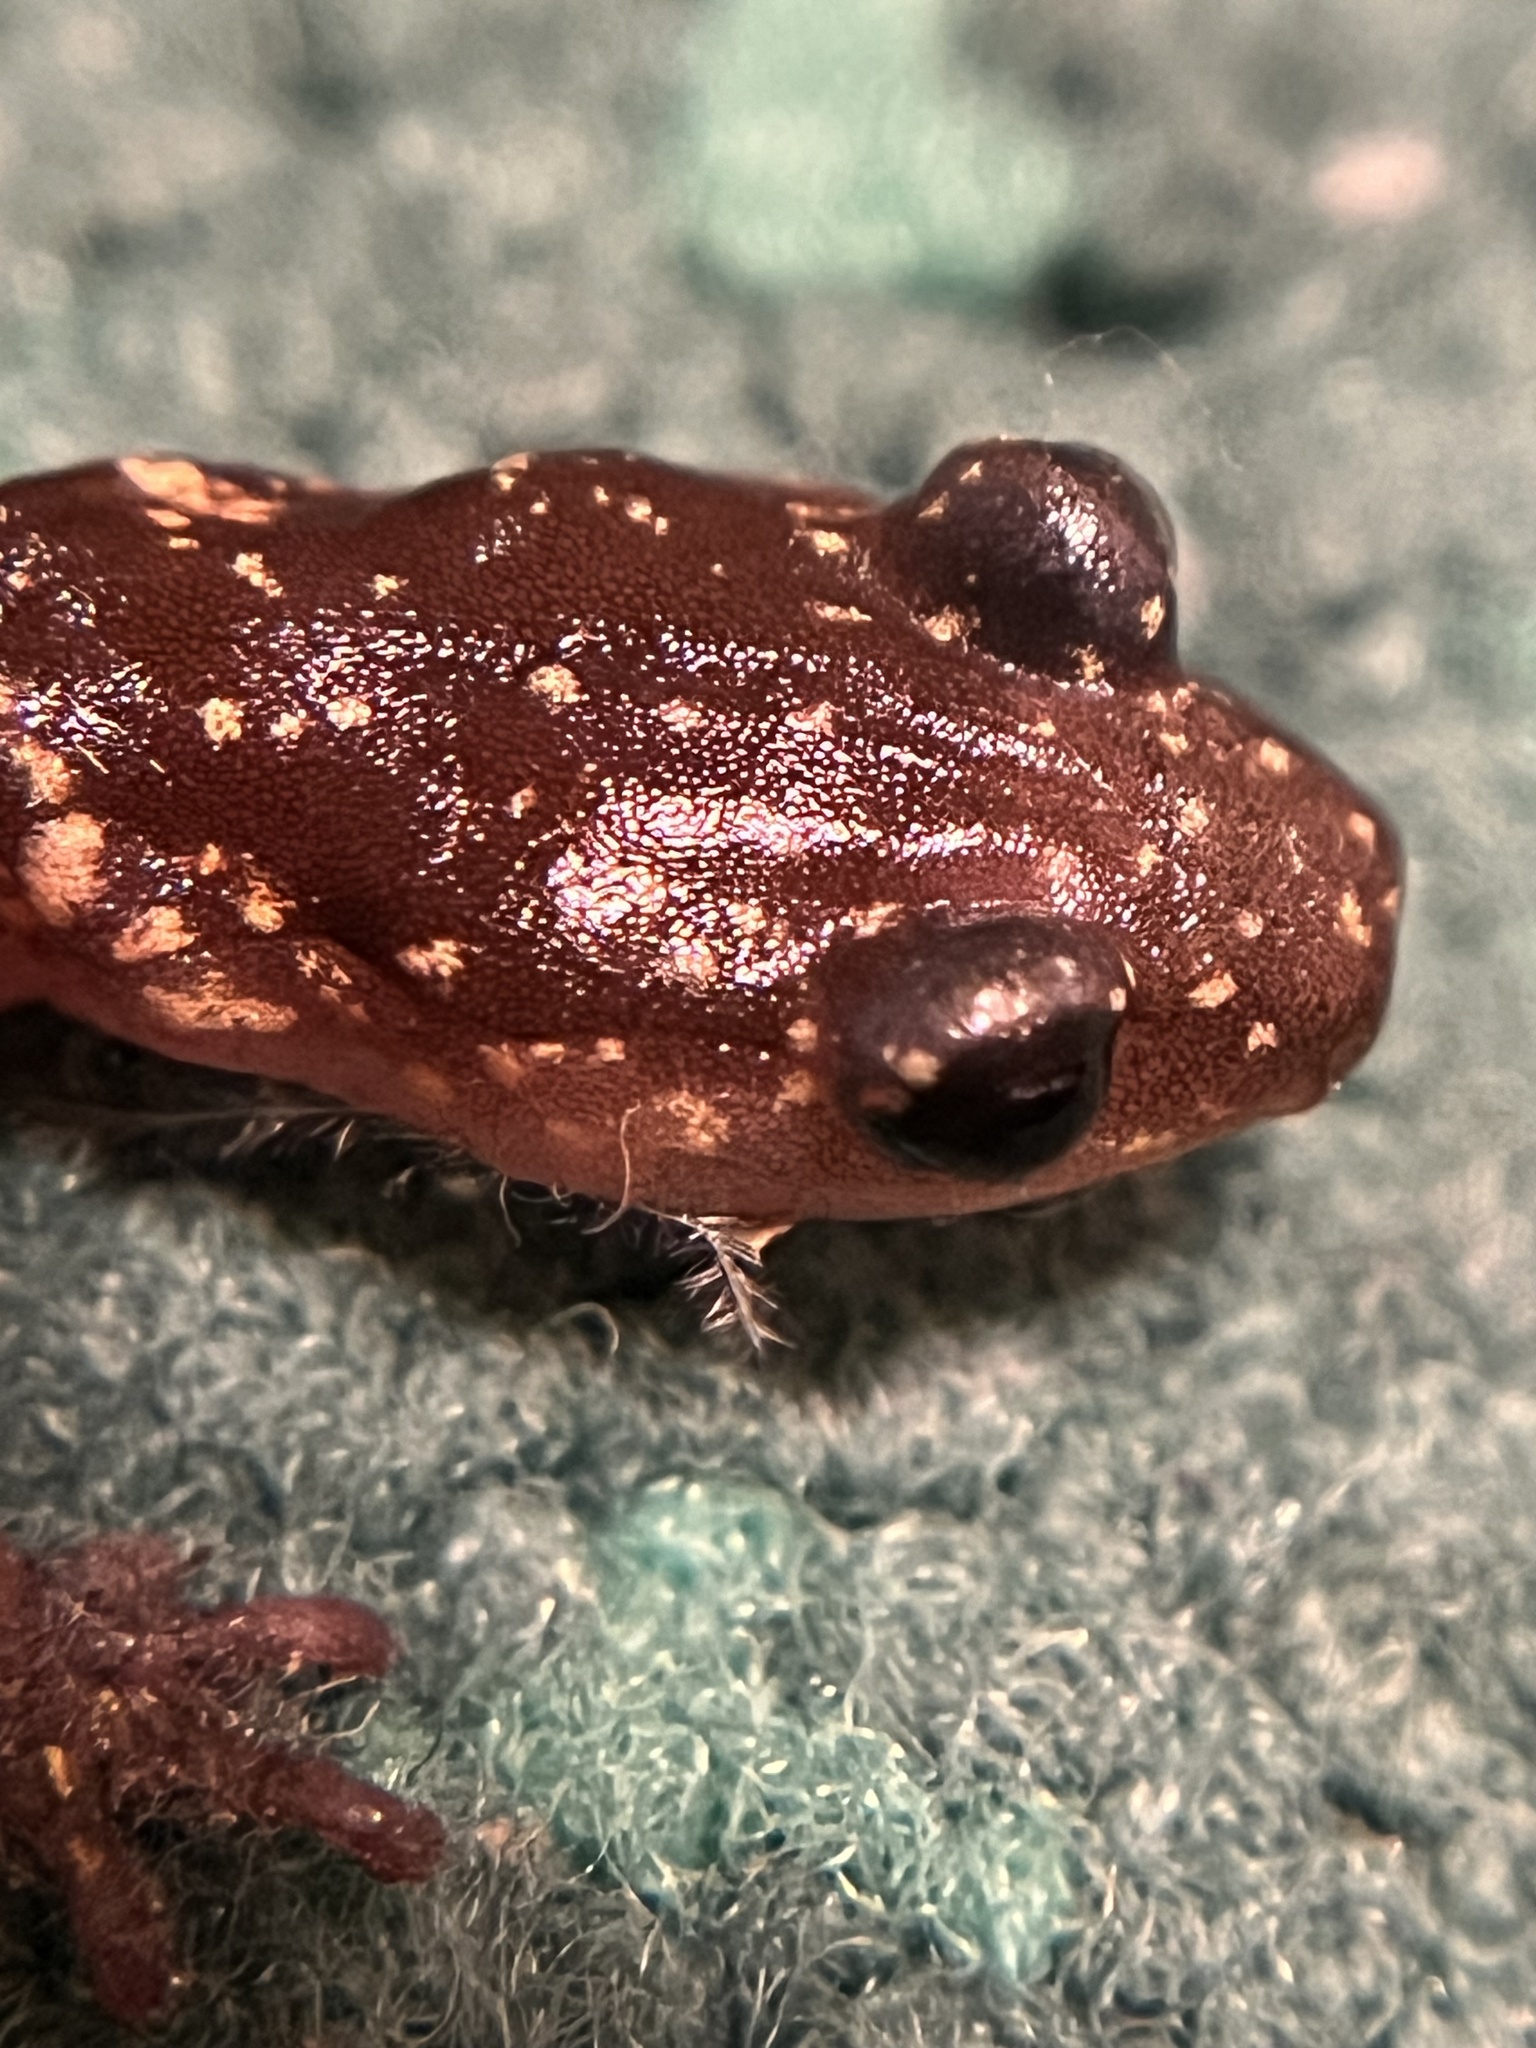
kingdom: Animalia
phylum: Chordata
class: Amphibia
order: Caudata
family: Plethodontidae
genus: Aneides
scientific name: Aneides lugubris
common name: Arboreal salamander
